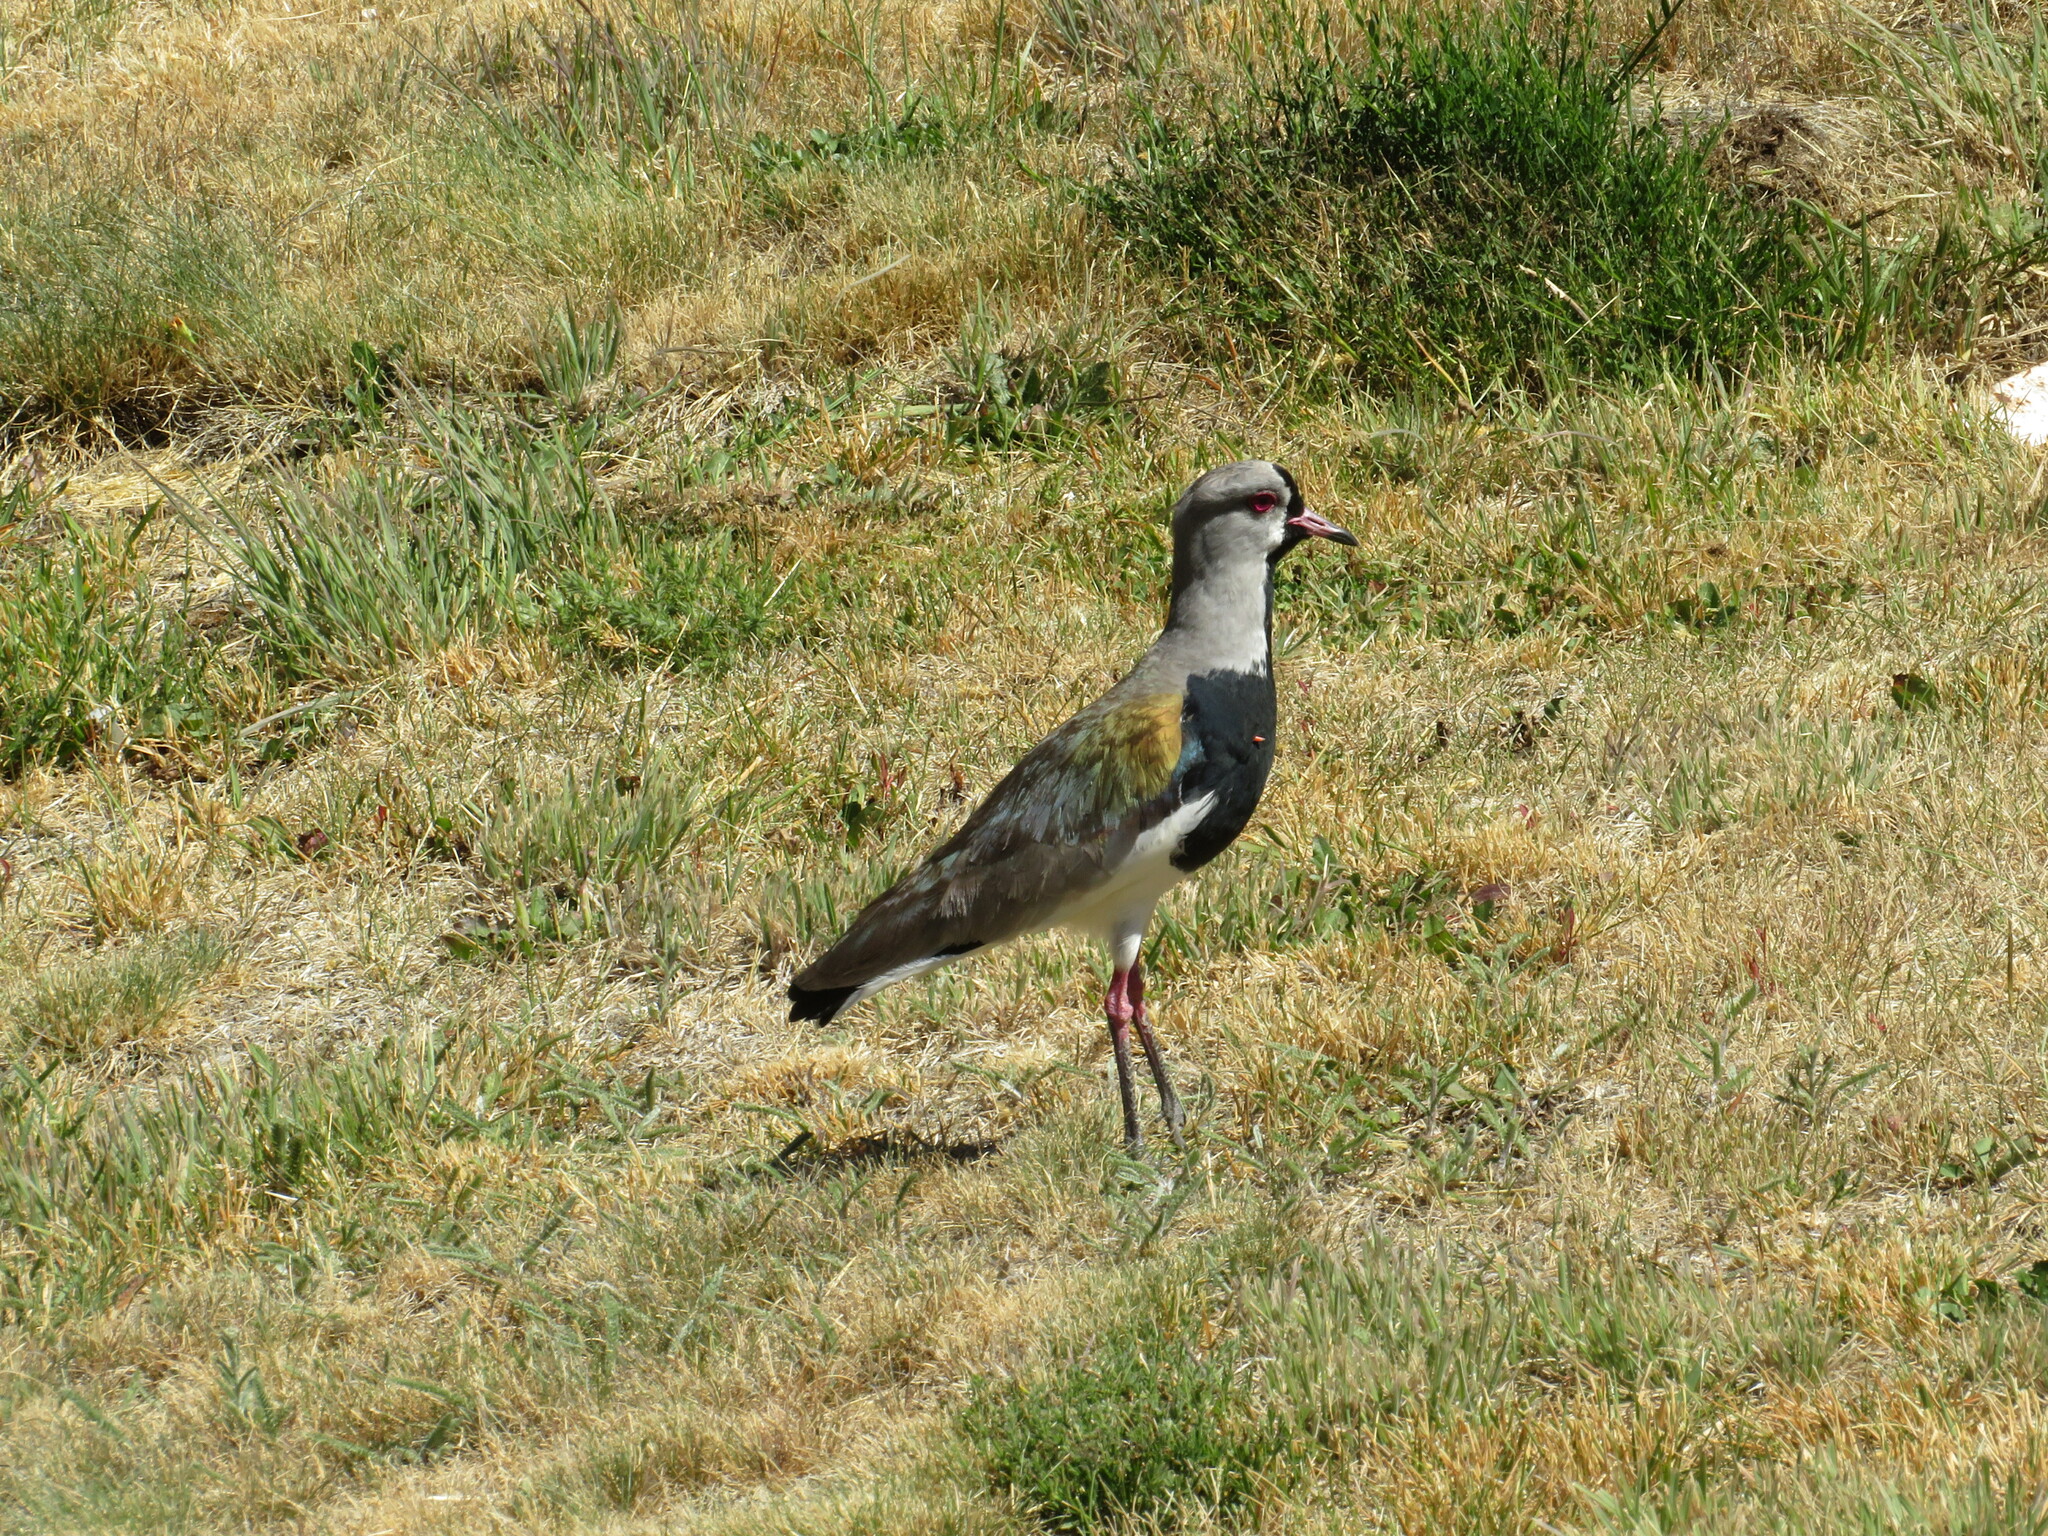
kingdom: Animalia
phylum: Chordata
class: Aves
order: Charadriiformes
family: Charadriidae
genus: Vanellus
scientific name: Vanellus chilensis
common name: Southern lapwing
